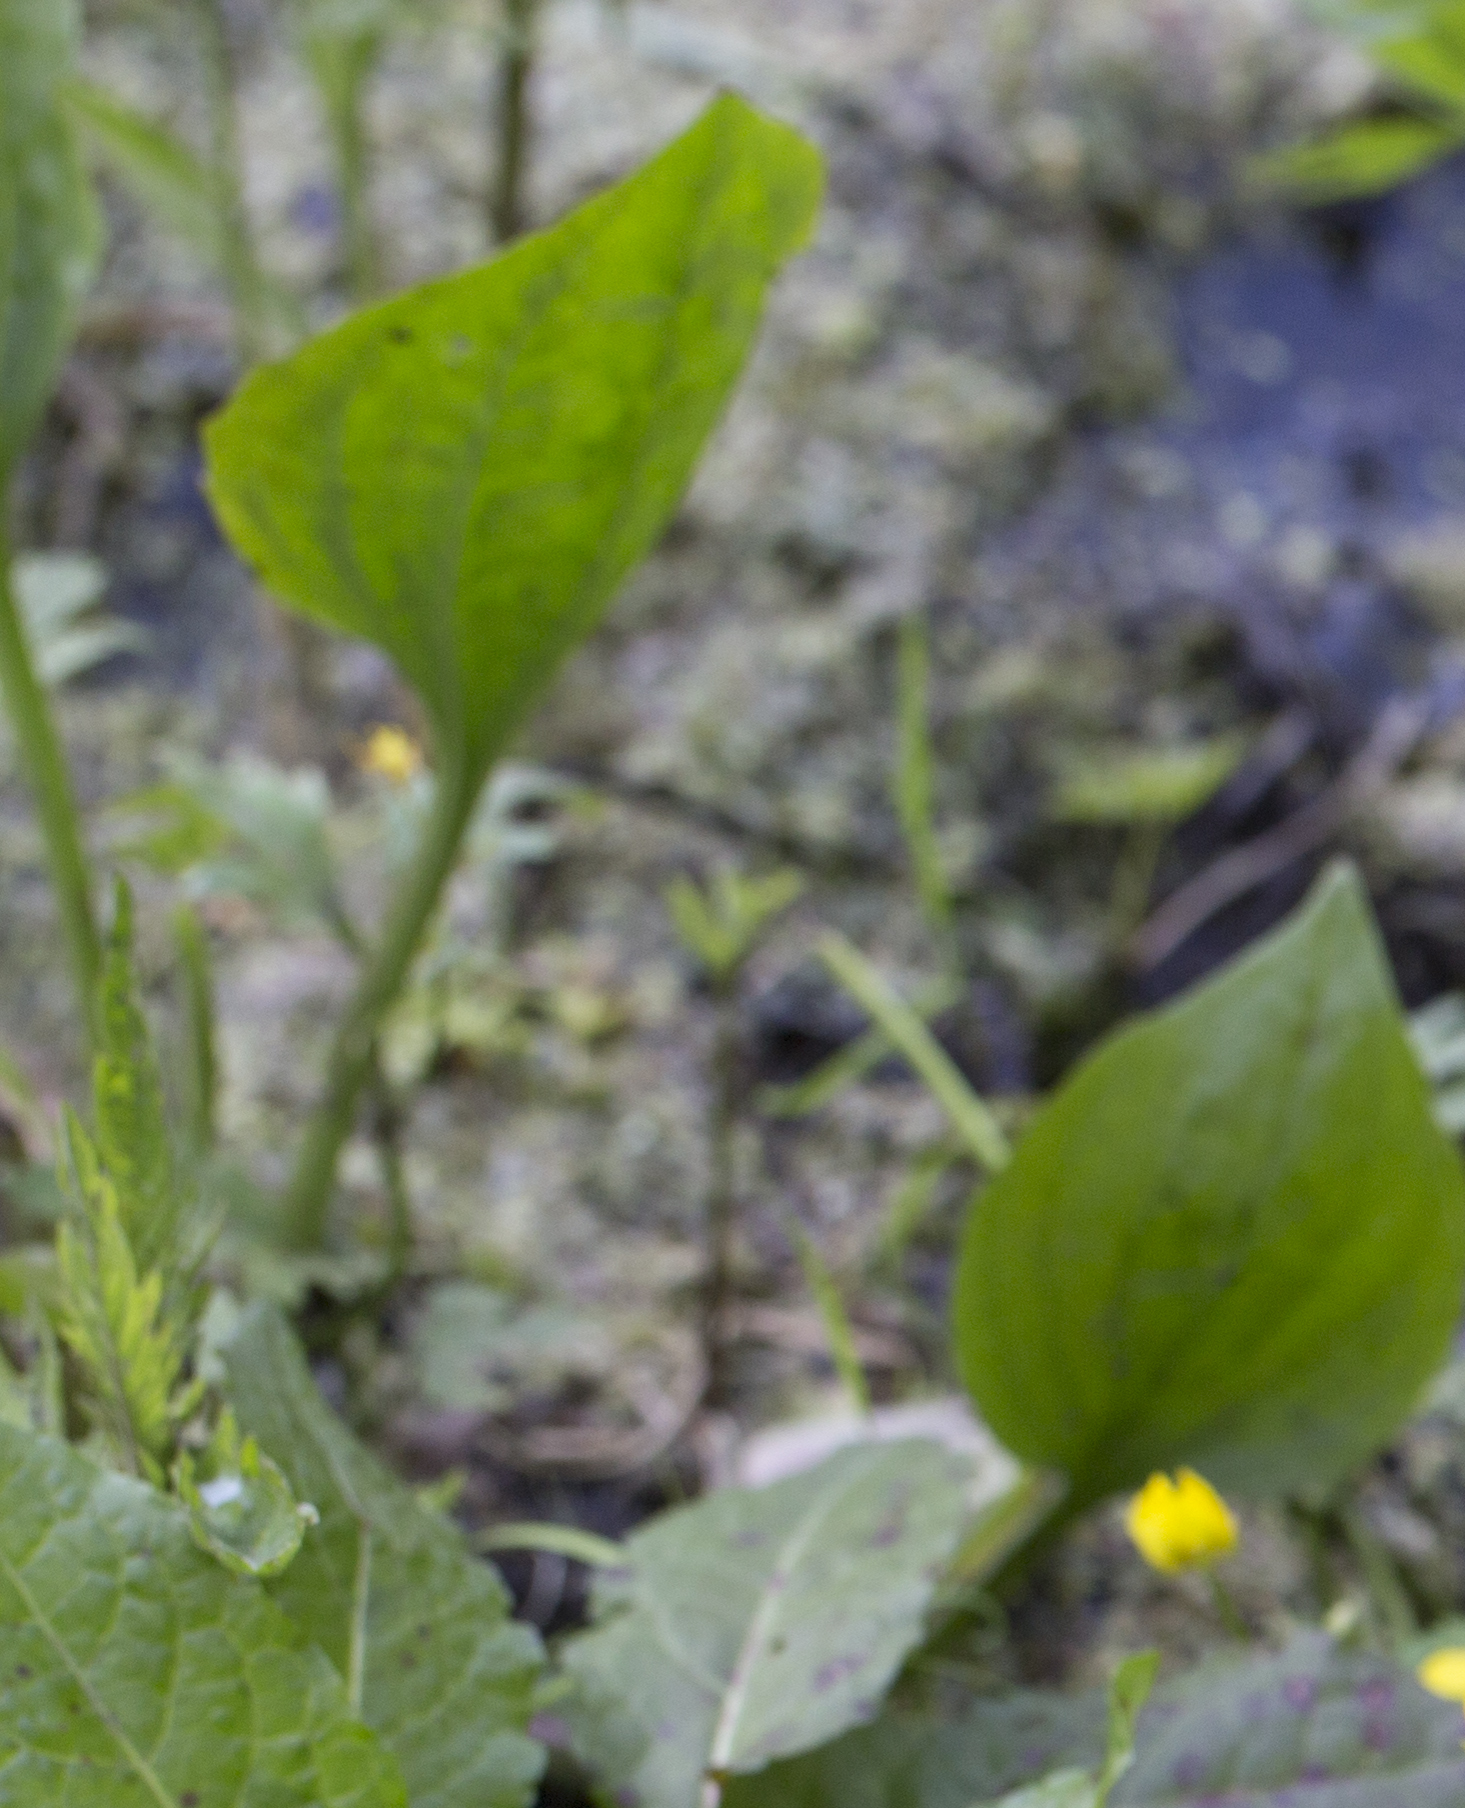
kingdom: Plantae
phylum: Tracheophyta
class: Liliopsida
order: Alismatales
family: Alismataceae
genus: Alisma
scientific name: Alisma plantago-aquatica
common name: Water-plantain
